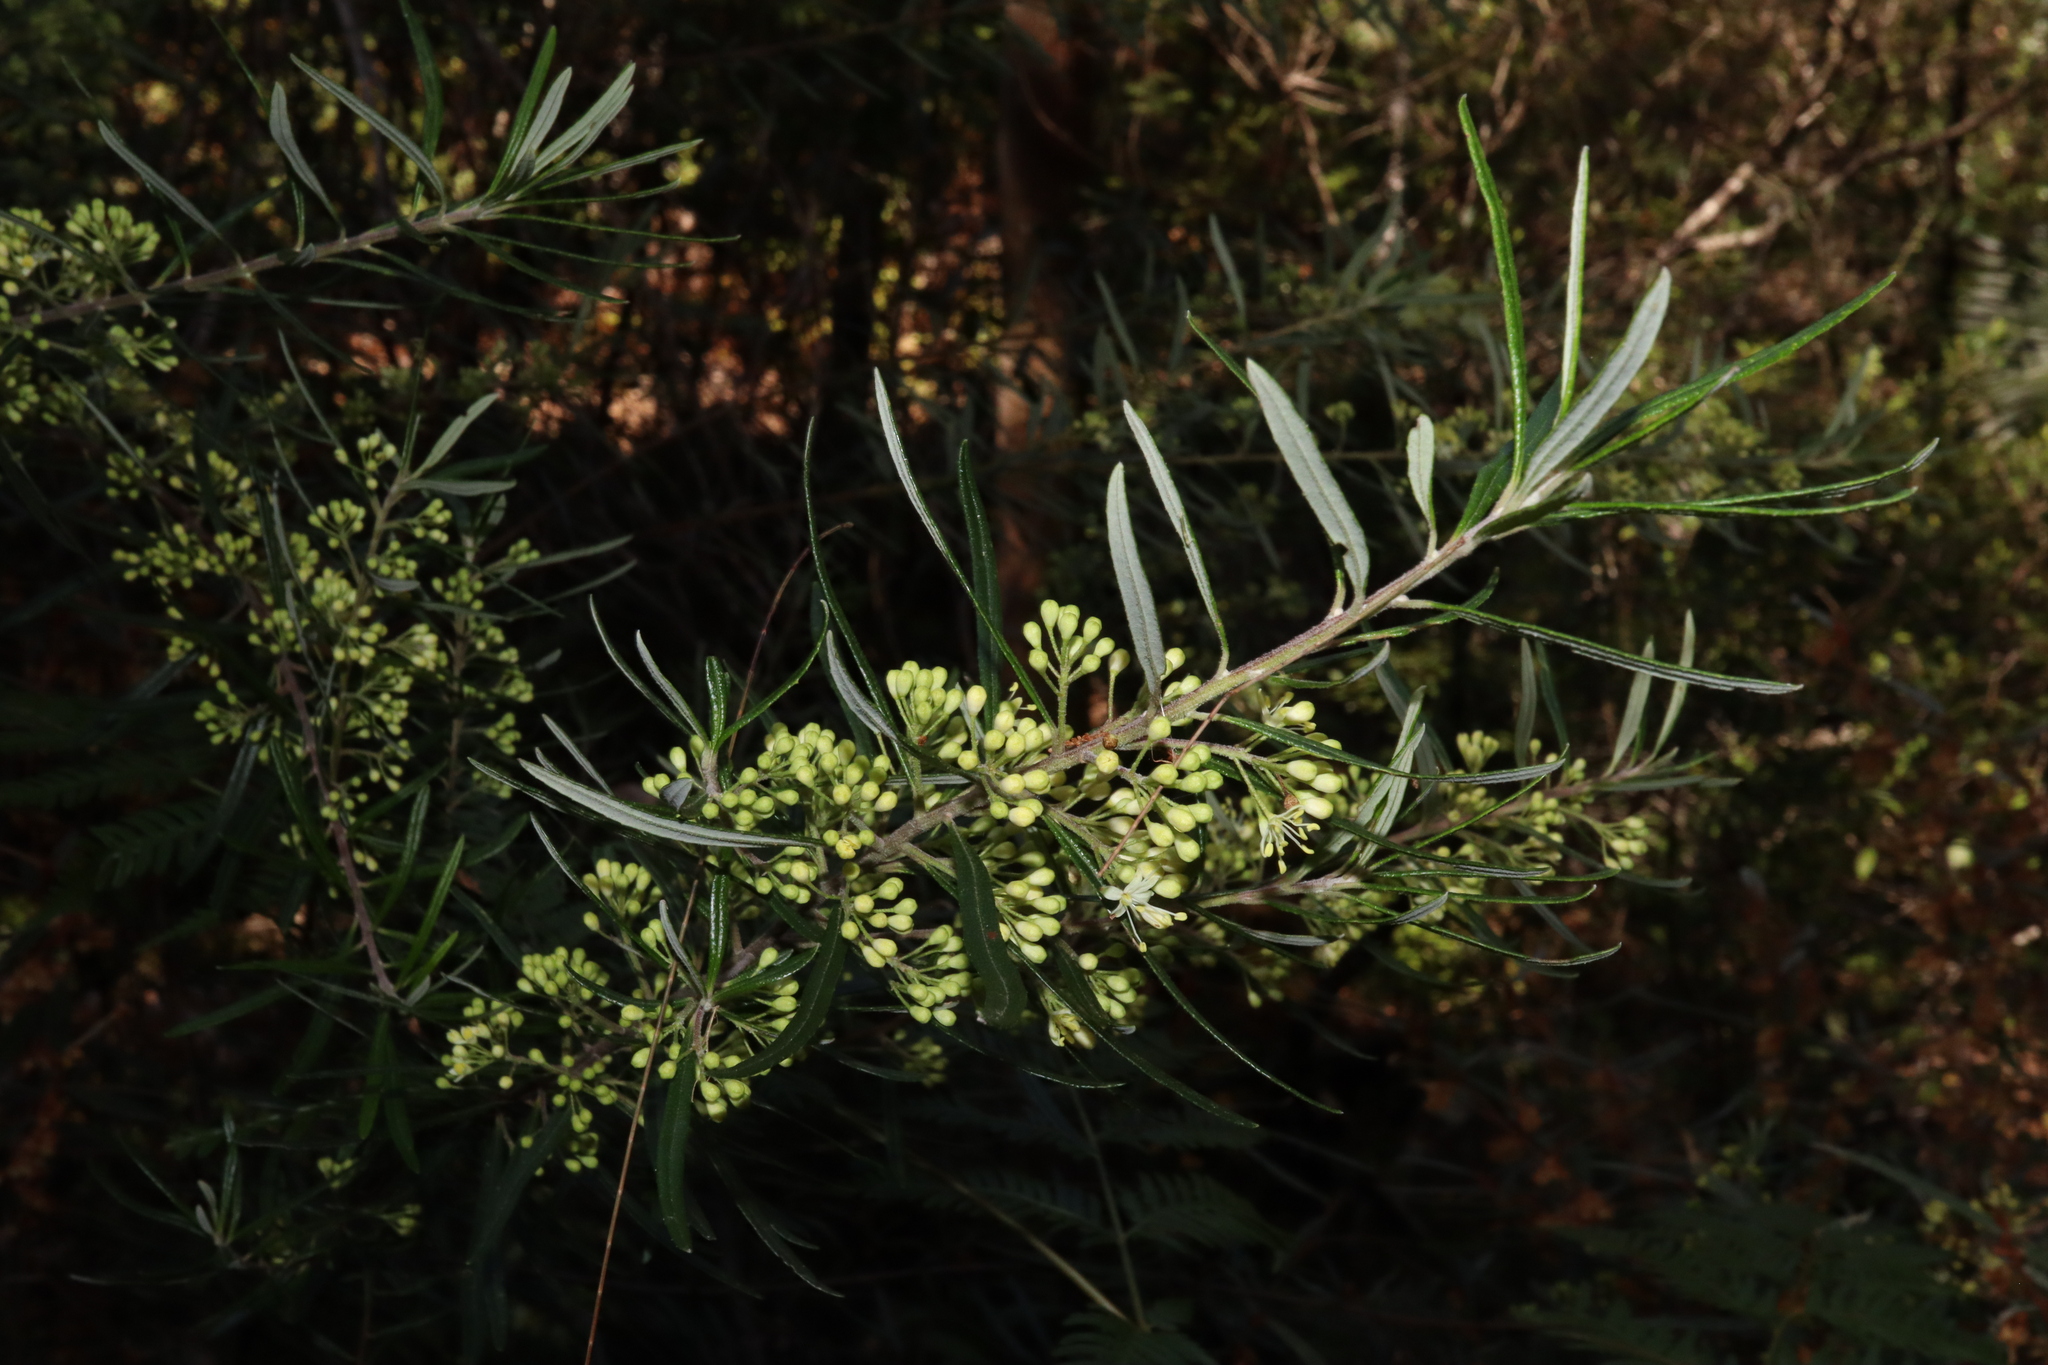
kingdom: Plantae
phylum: Tracheophyta
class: Magnoliopsida
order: Sapindales
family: Rutaceae
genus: Leionema
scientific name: Leionema dentatum
